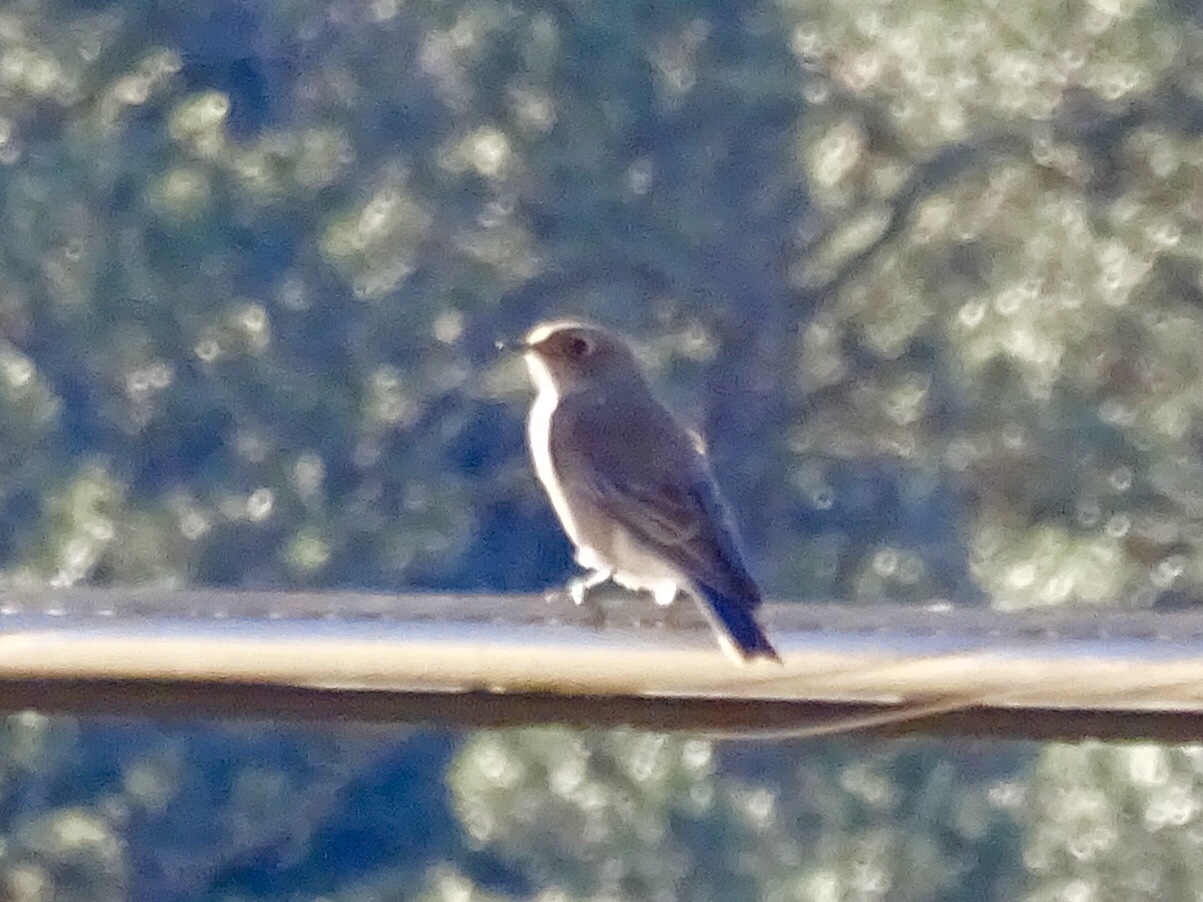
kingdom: Animalia
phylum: Chordata
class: Aves
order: Passeriformes
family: Turdidae
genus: Sialia
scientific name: Sialia currucoides
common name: Mountain bluebird
